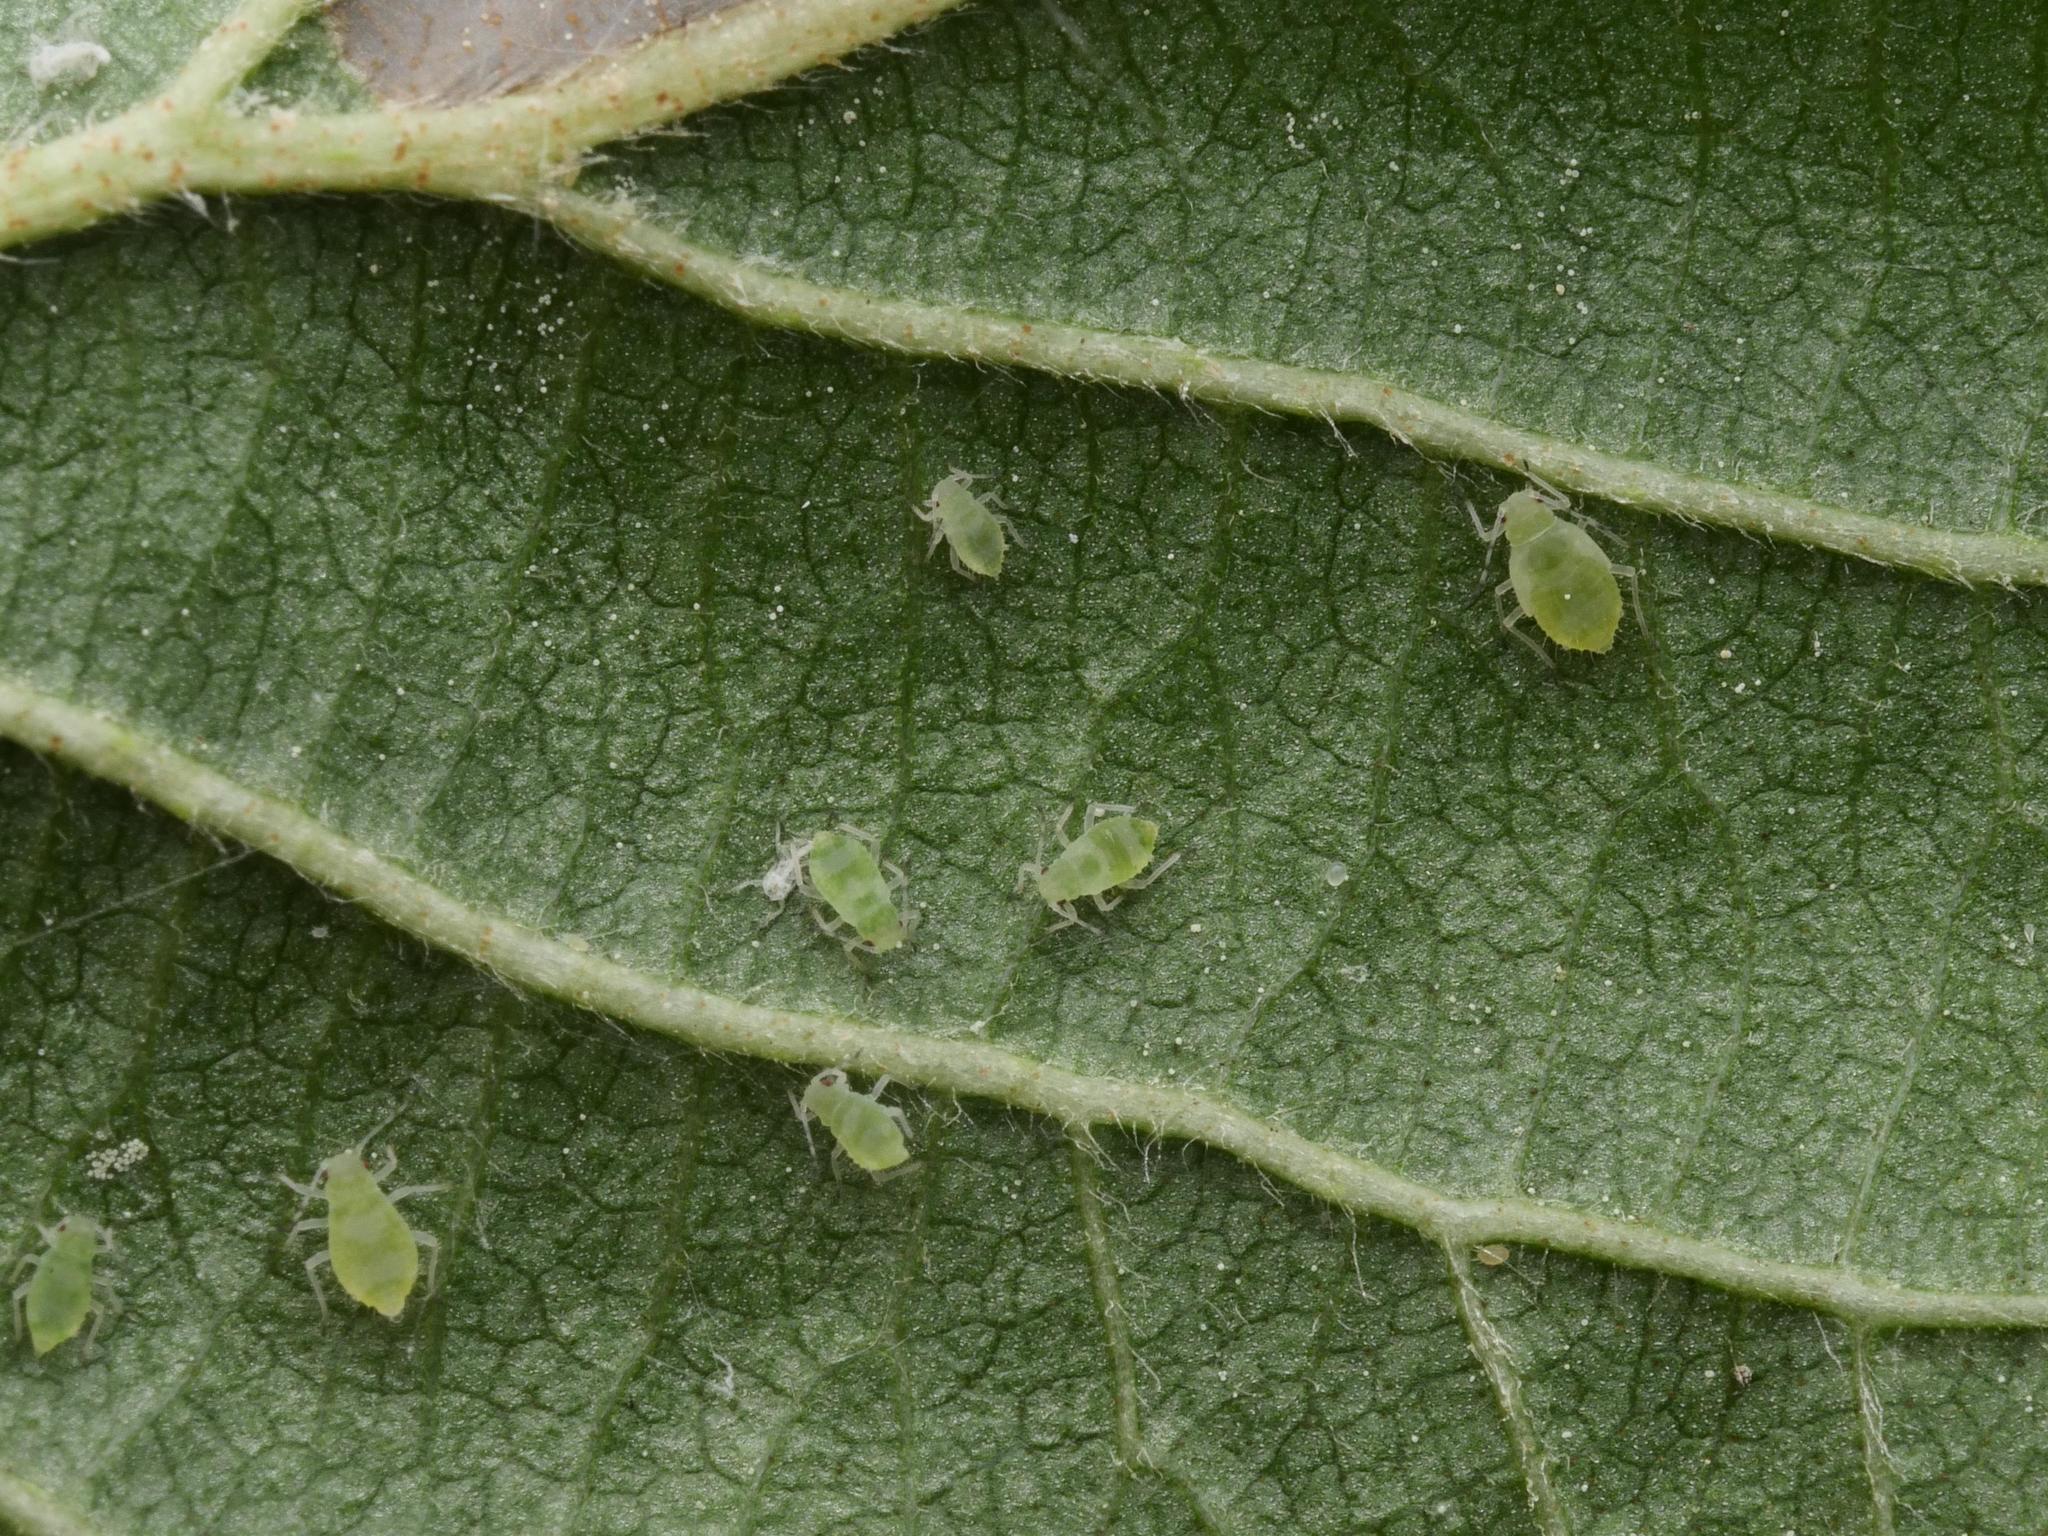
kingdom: Animalia
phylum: Arthropoda
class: Insecta
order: Hemiptera
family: Aphididae
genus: Pterocallis
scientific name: Pterocallis maculata
